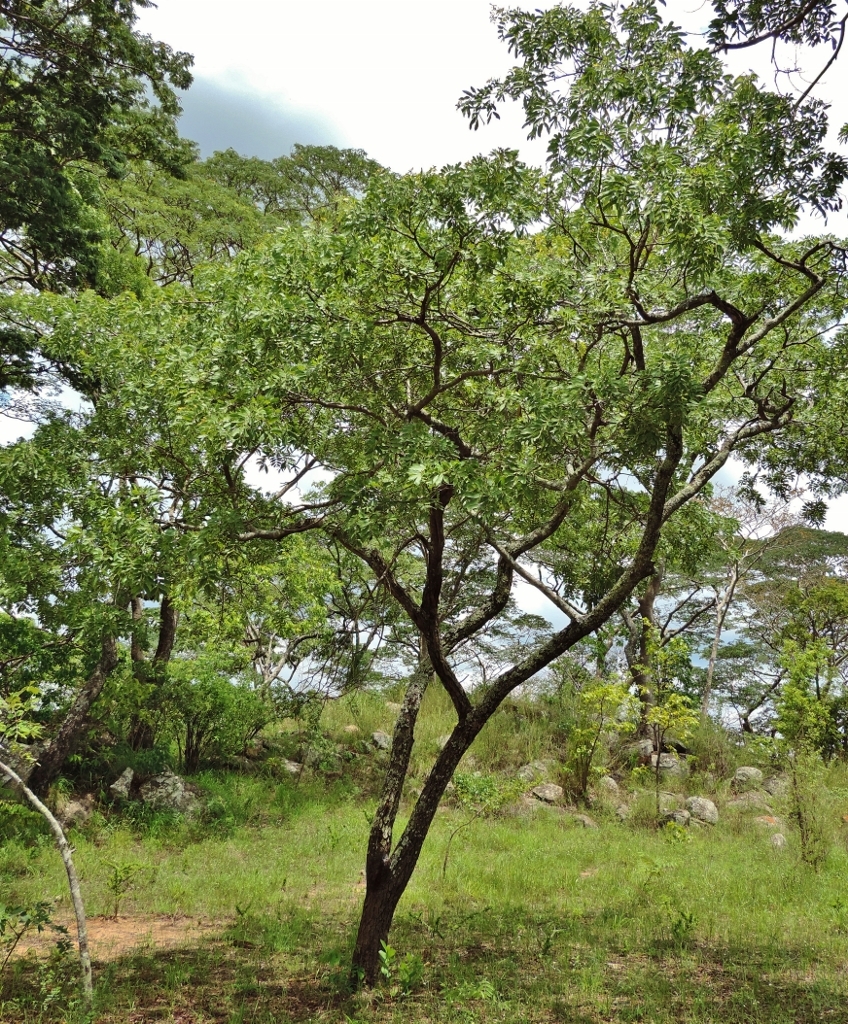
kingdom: Plantae
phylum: Tracheophyta
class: Magnoliopsida
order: Fabales
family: Fabaceae
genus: Julbernardia
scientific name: Julbernardia globiflora
